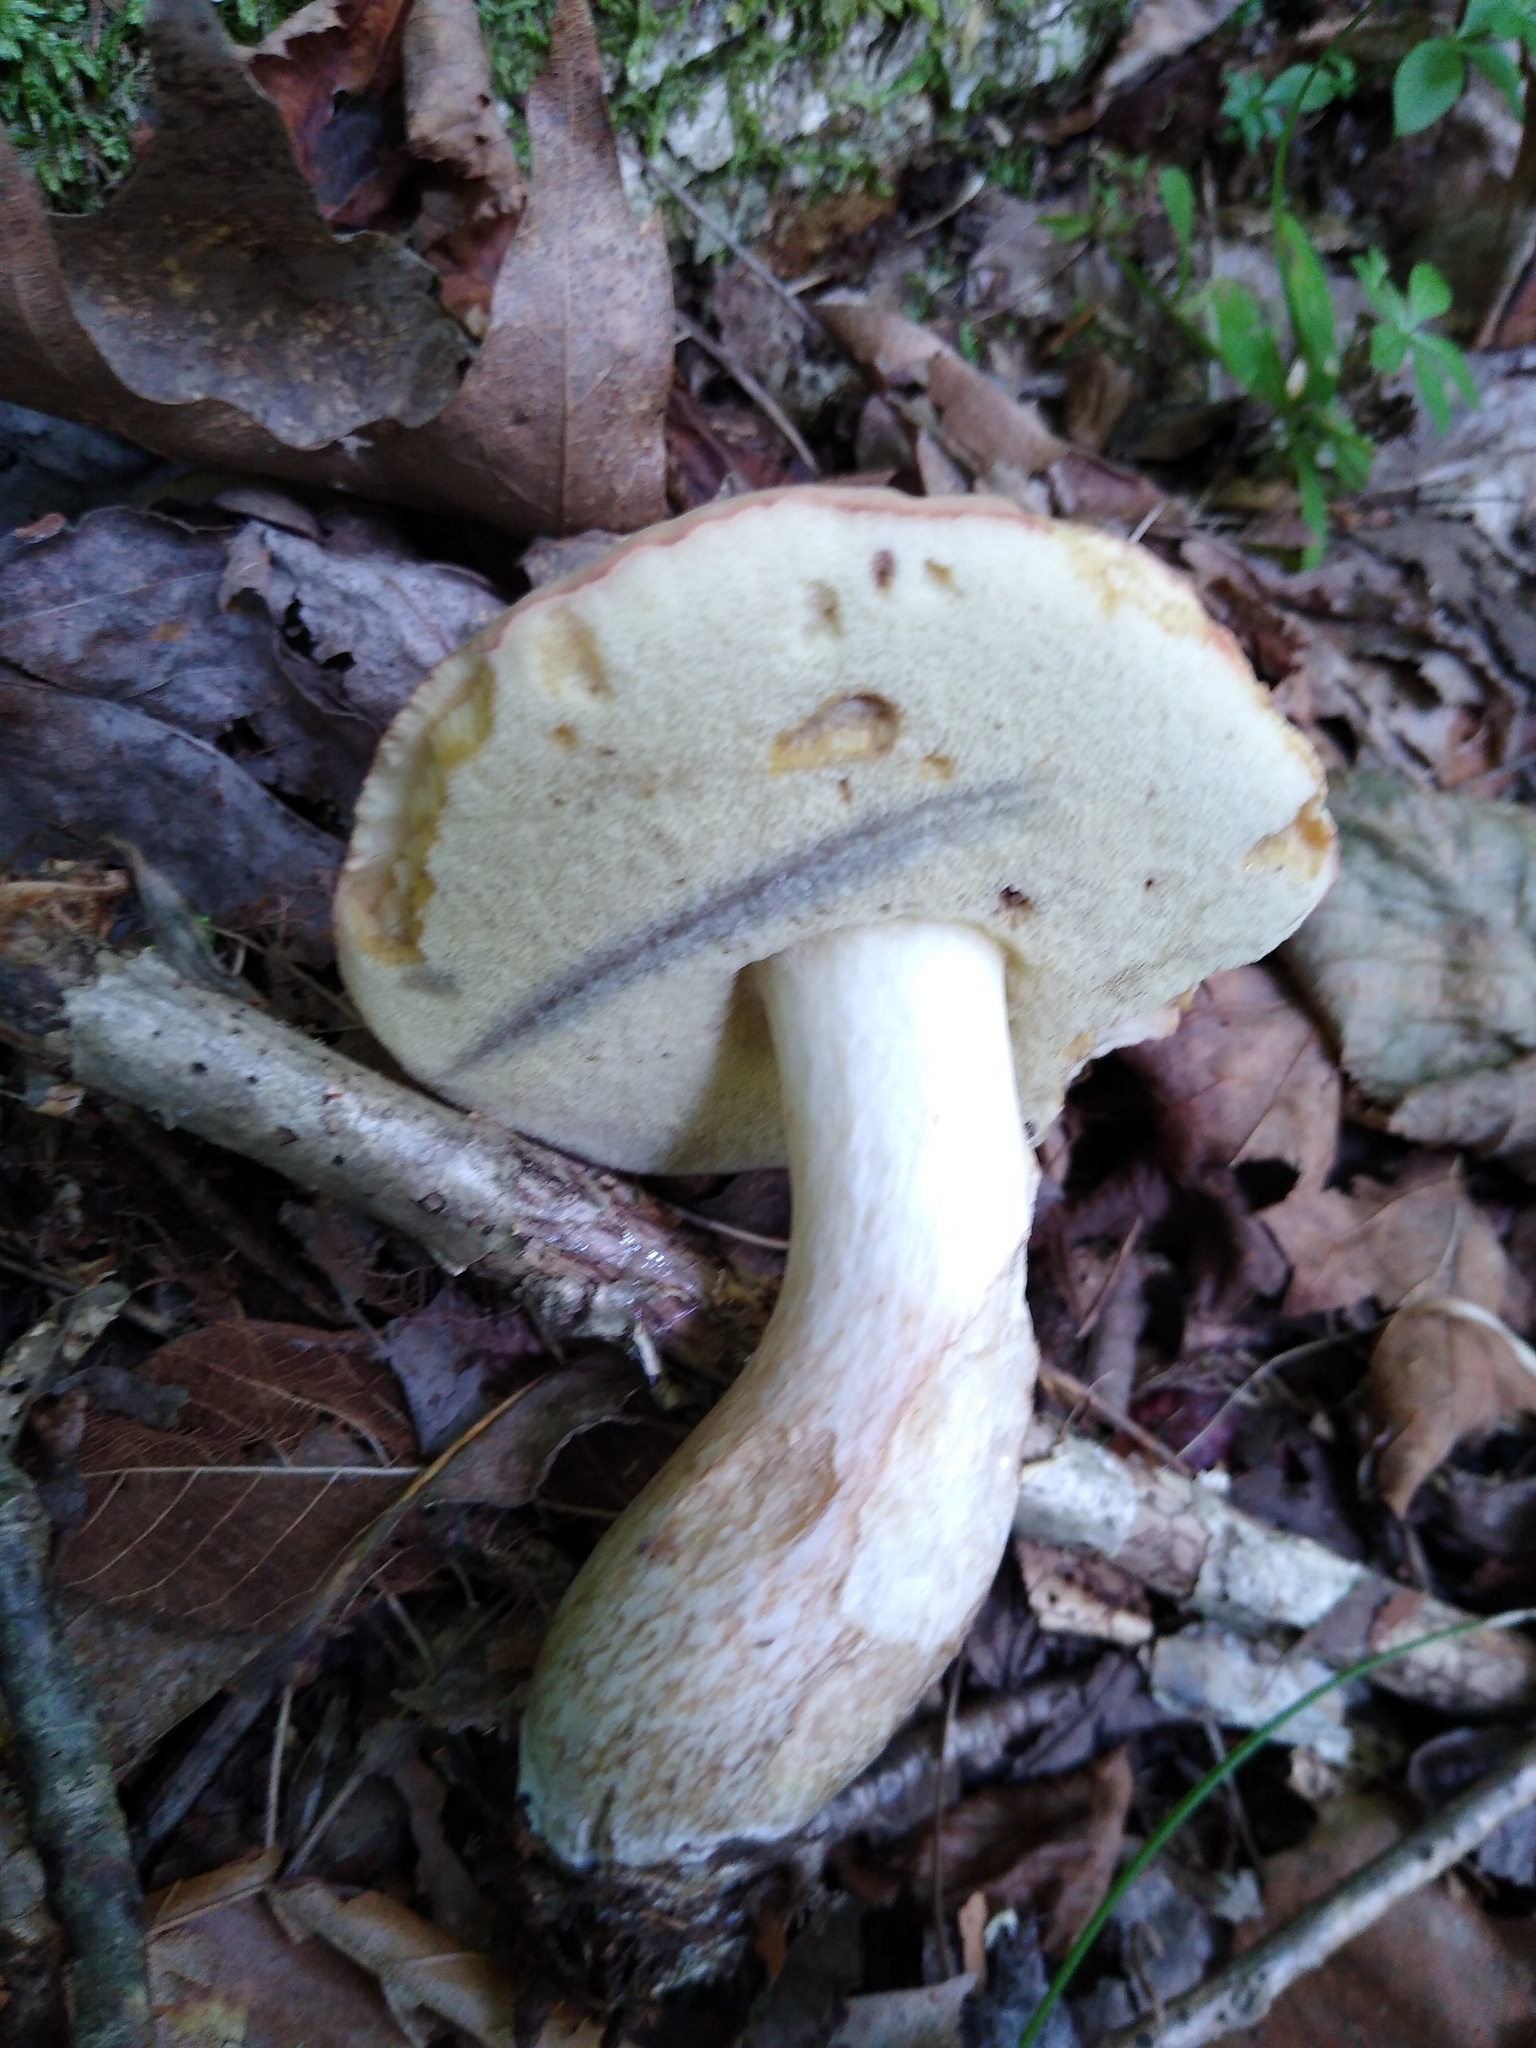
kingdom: Fungi
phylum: Basidiomycota
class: Agaricomycetes
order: Boletales
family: Boletaceae
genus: Imleria
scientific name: Imleria pallida
